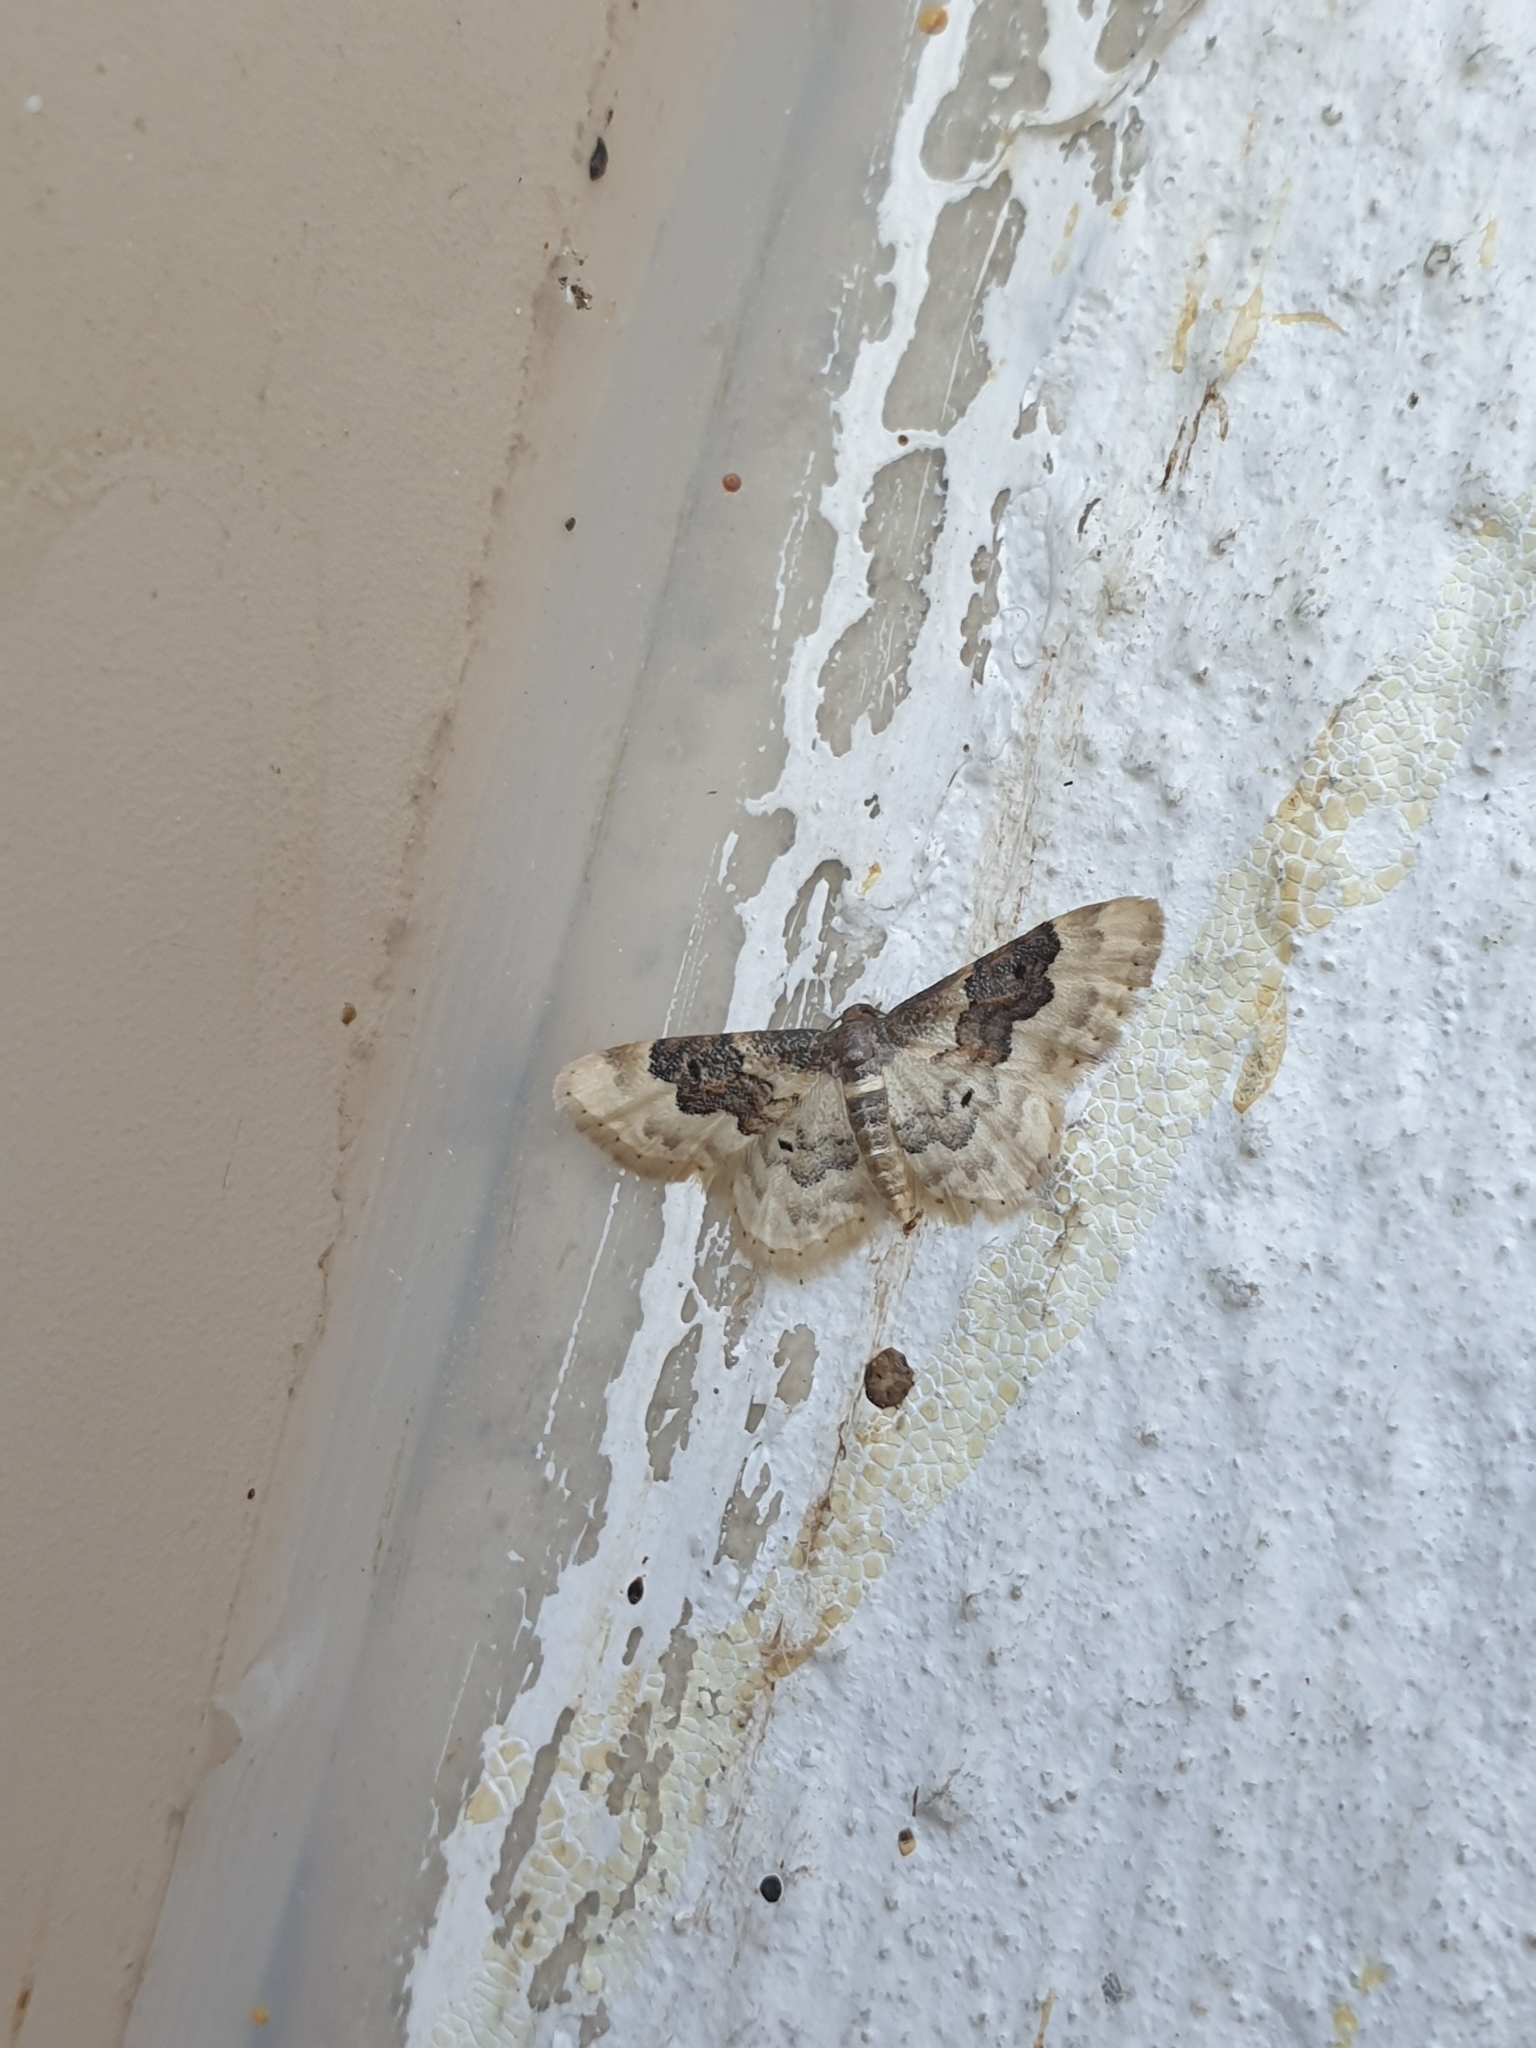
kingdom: Animalia
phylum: Arthropoda
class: Insecta
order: Lepidoptera
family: Geometridae
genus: Idaea
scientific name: Idaea rusticata
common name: Least carpet
